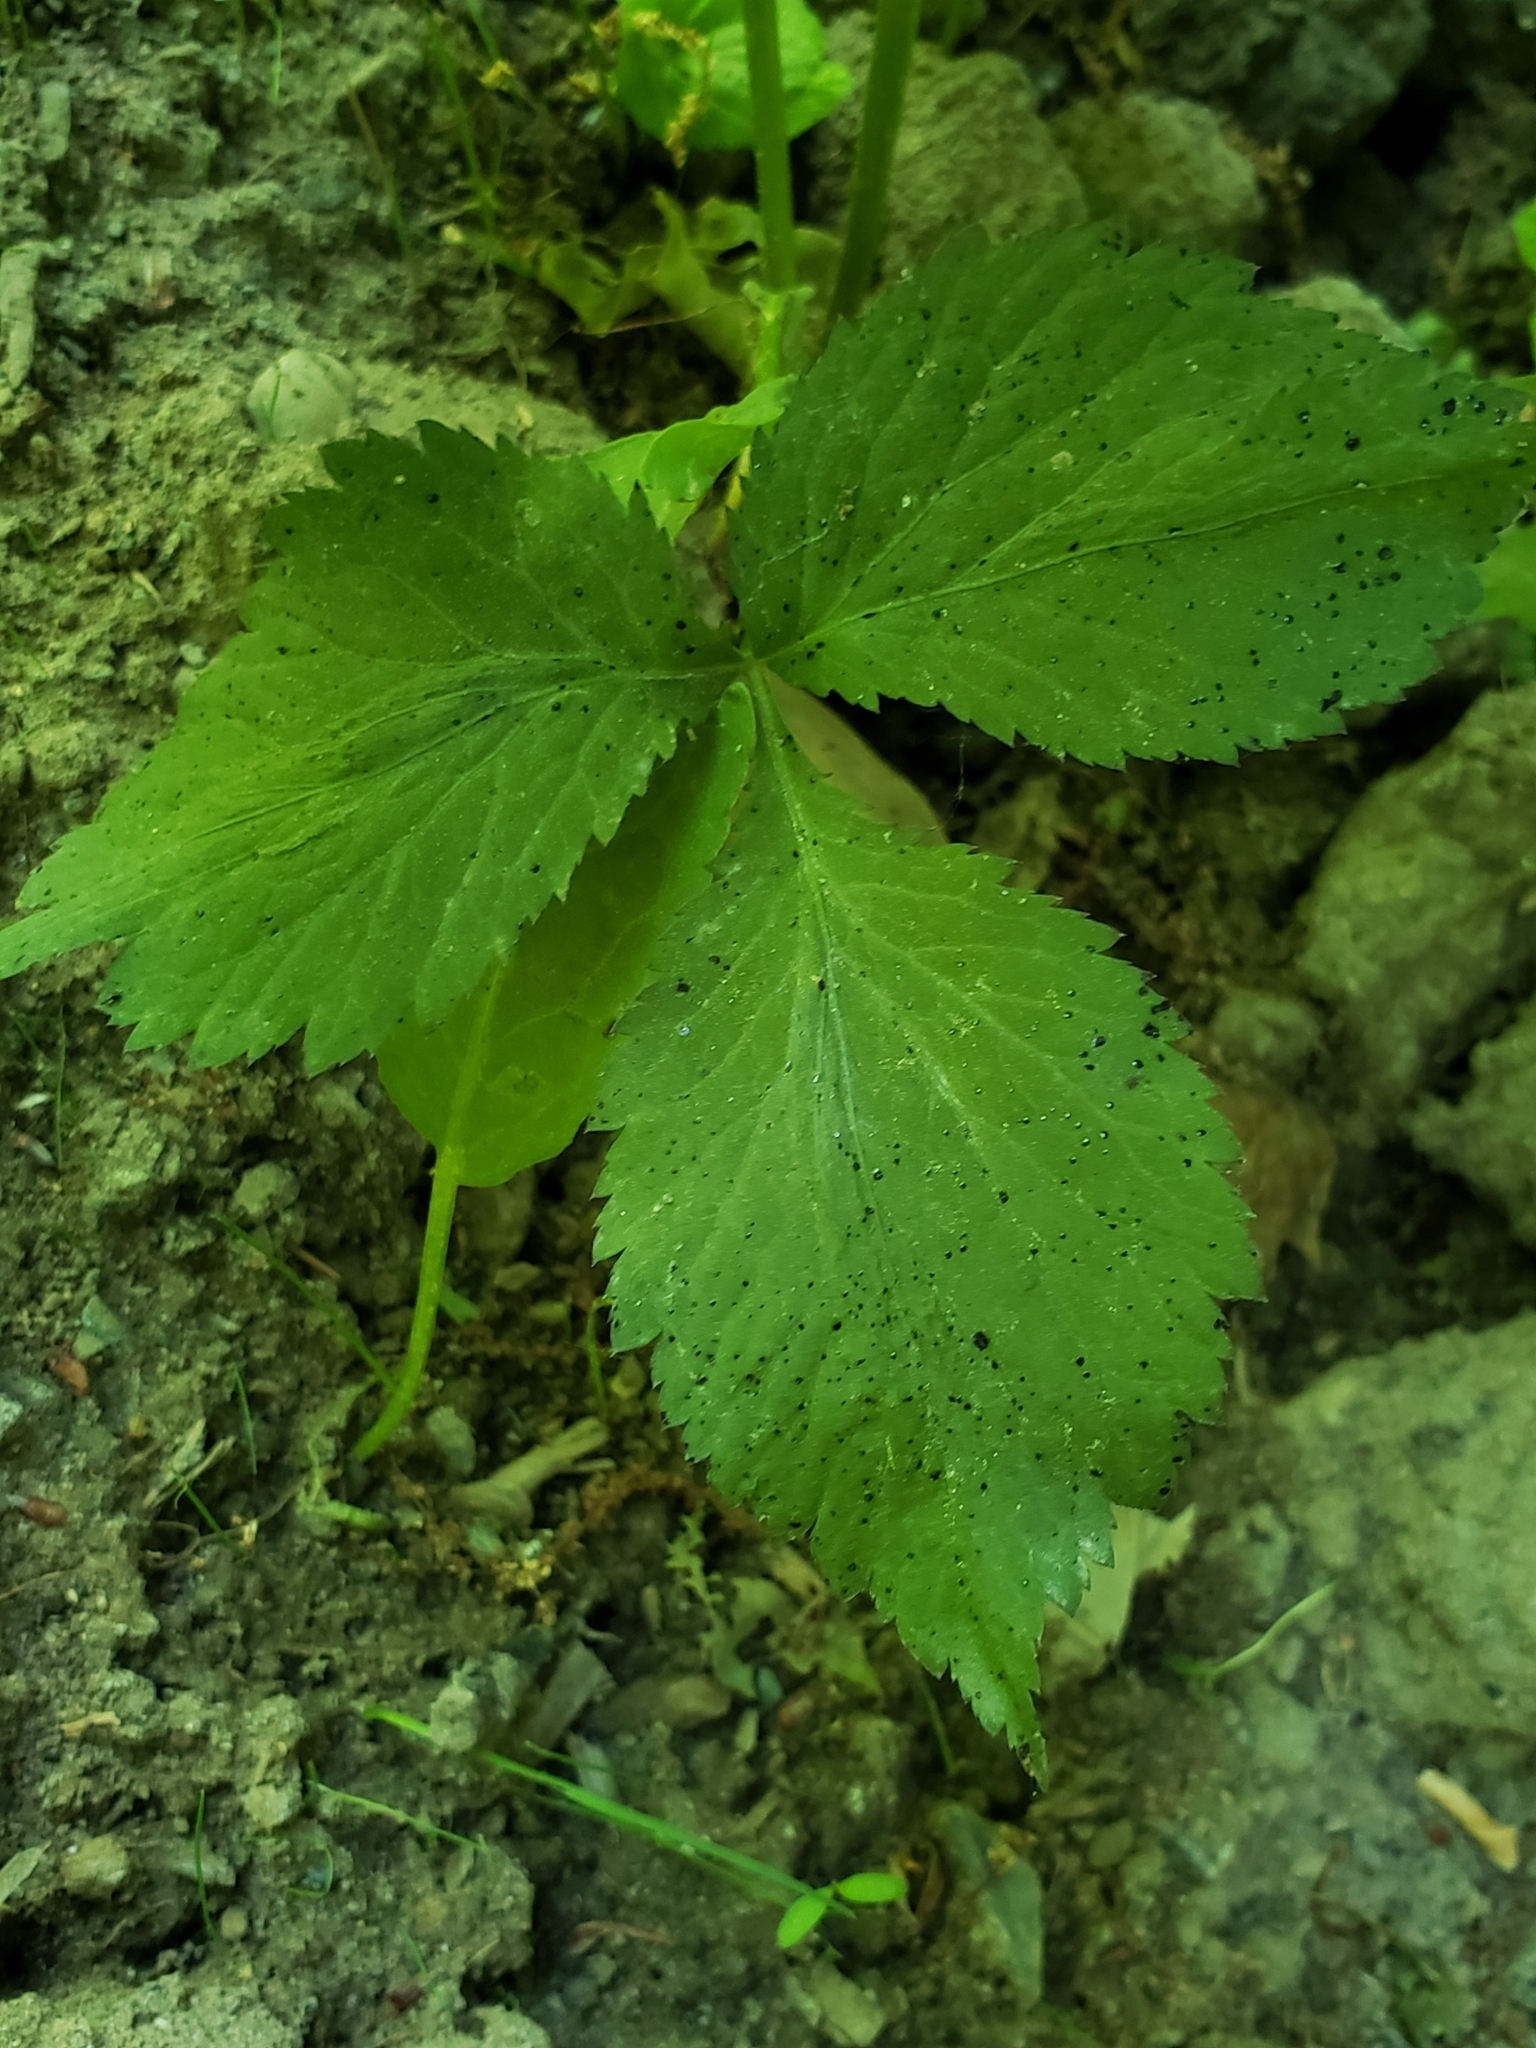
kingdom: Plantae
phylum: Tracheophyta
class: Magnoliopsida
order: Apiales
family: Apiaceae
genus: Cryptotaenia
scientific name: Cryptotaenia canadensis
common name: Honewort
